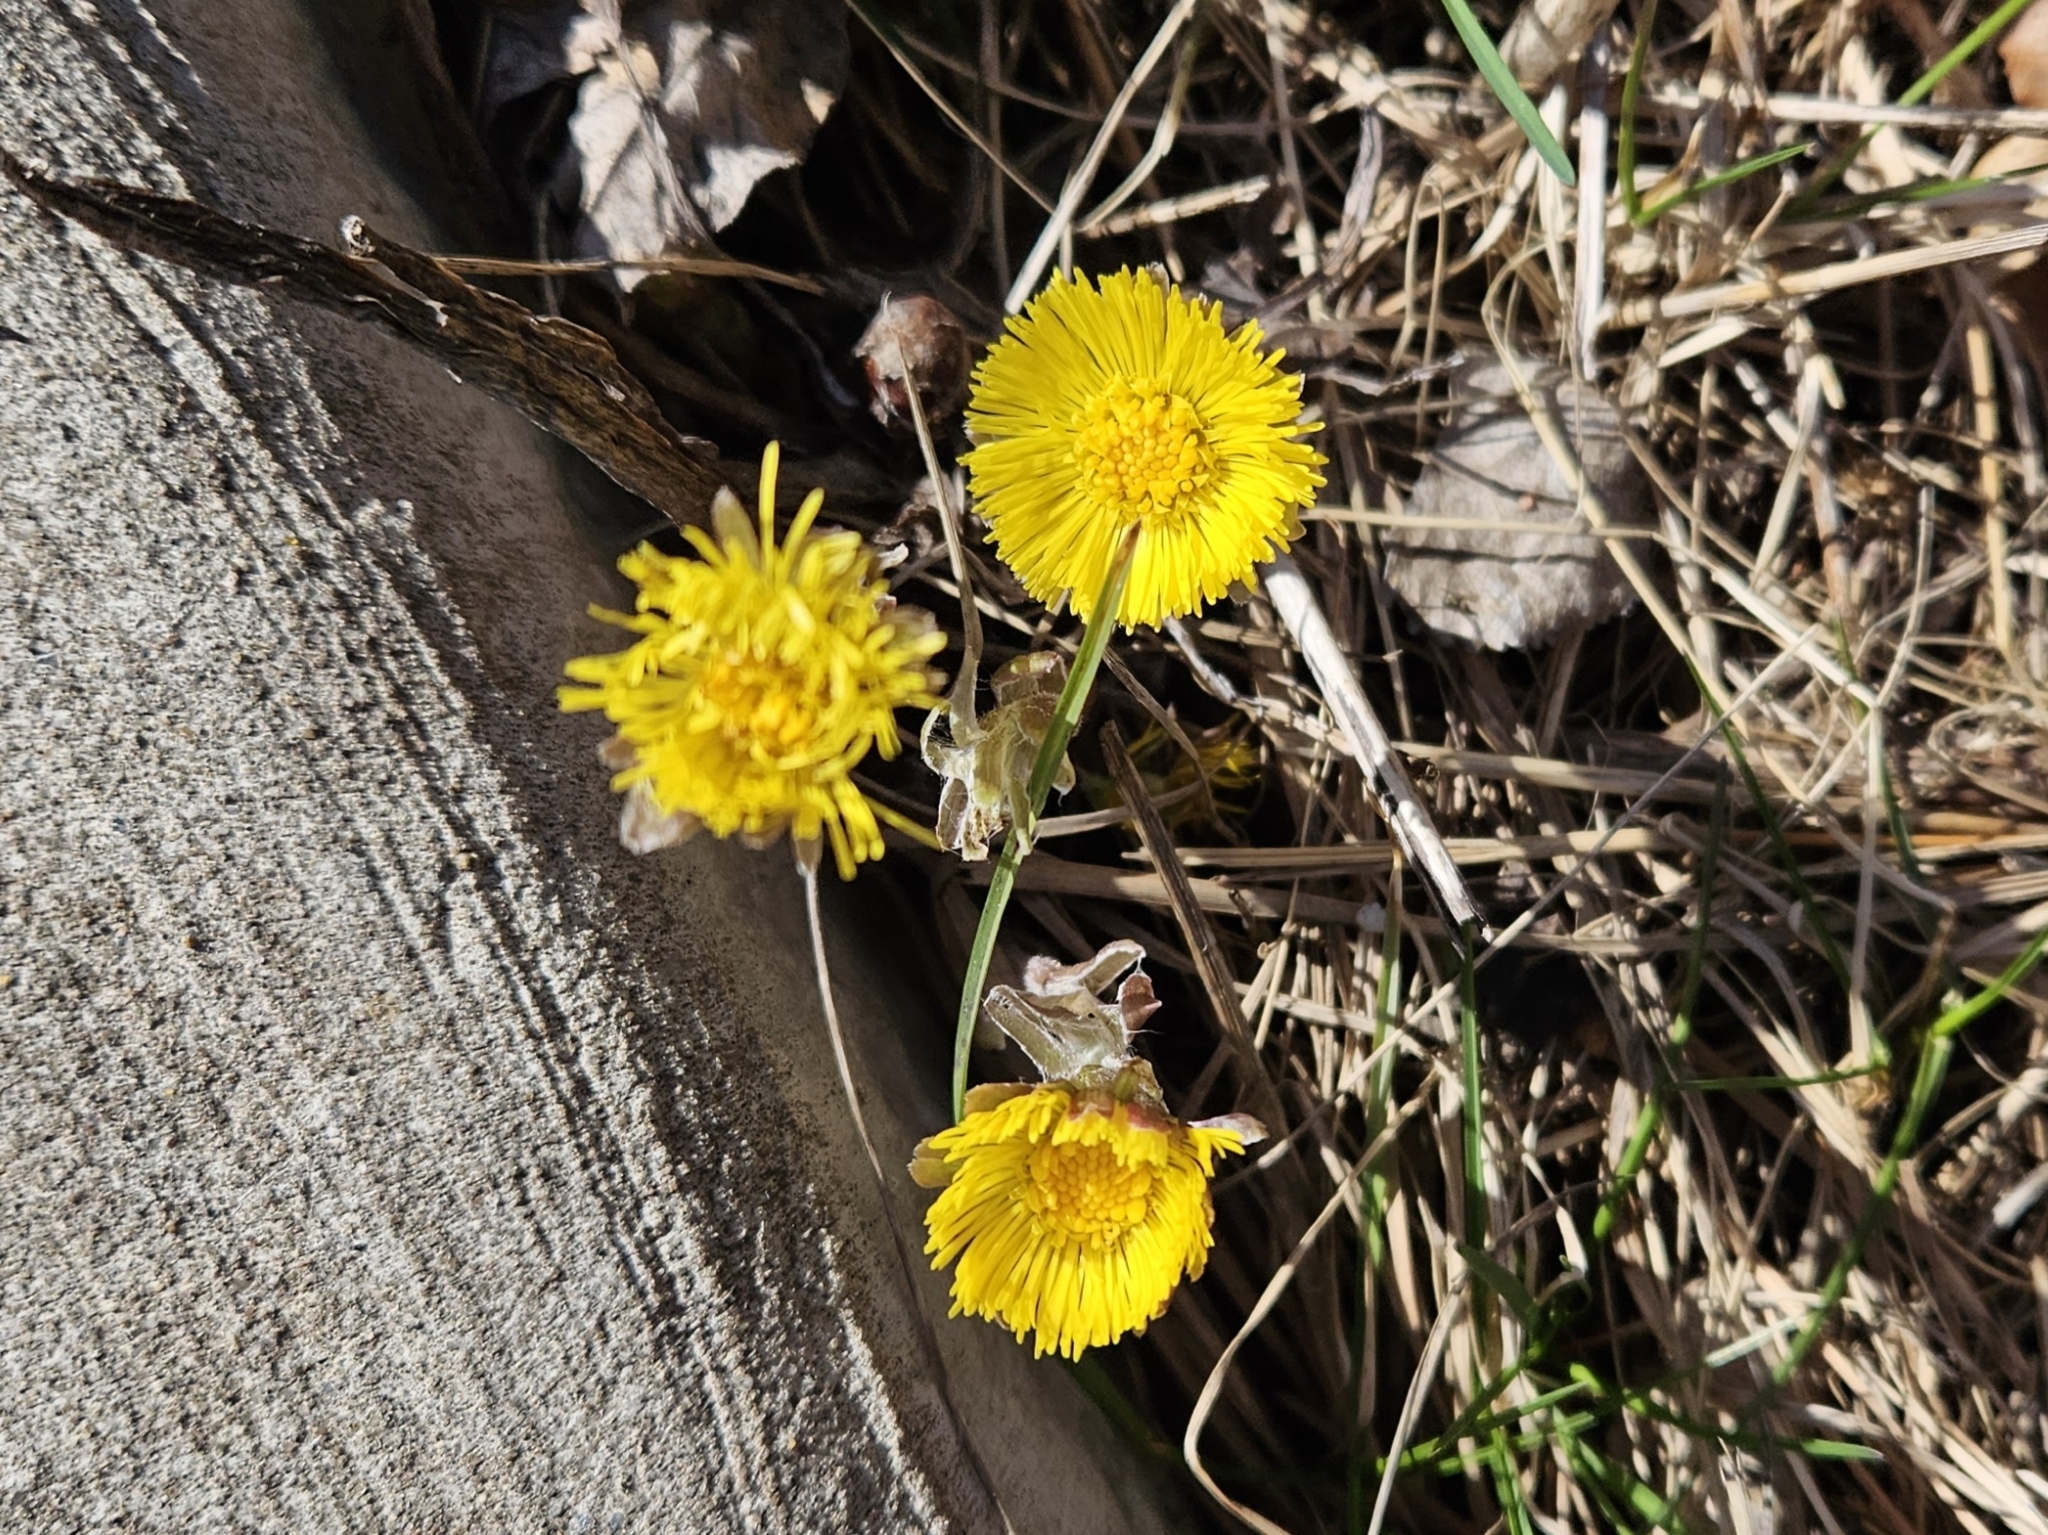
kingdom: Plantae
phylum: Tracheophyta
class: Magnoliopsida
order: Asterales
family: Asteraceae
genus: Tussilago
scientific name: Tussilago farfara
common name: Coltsfoot
